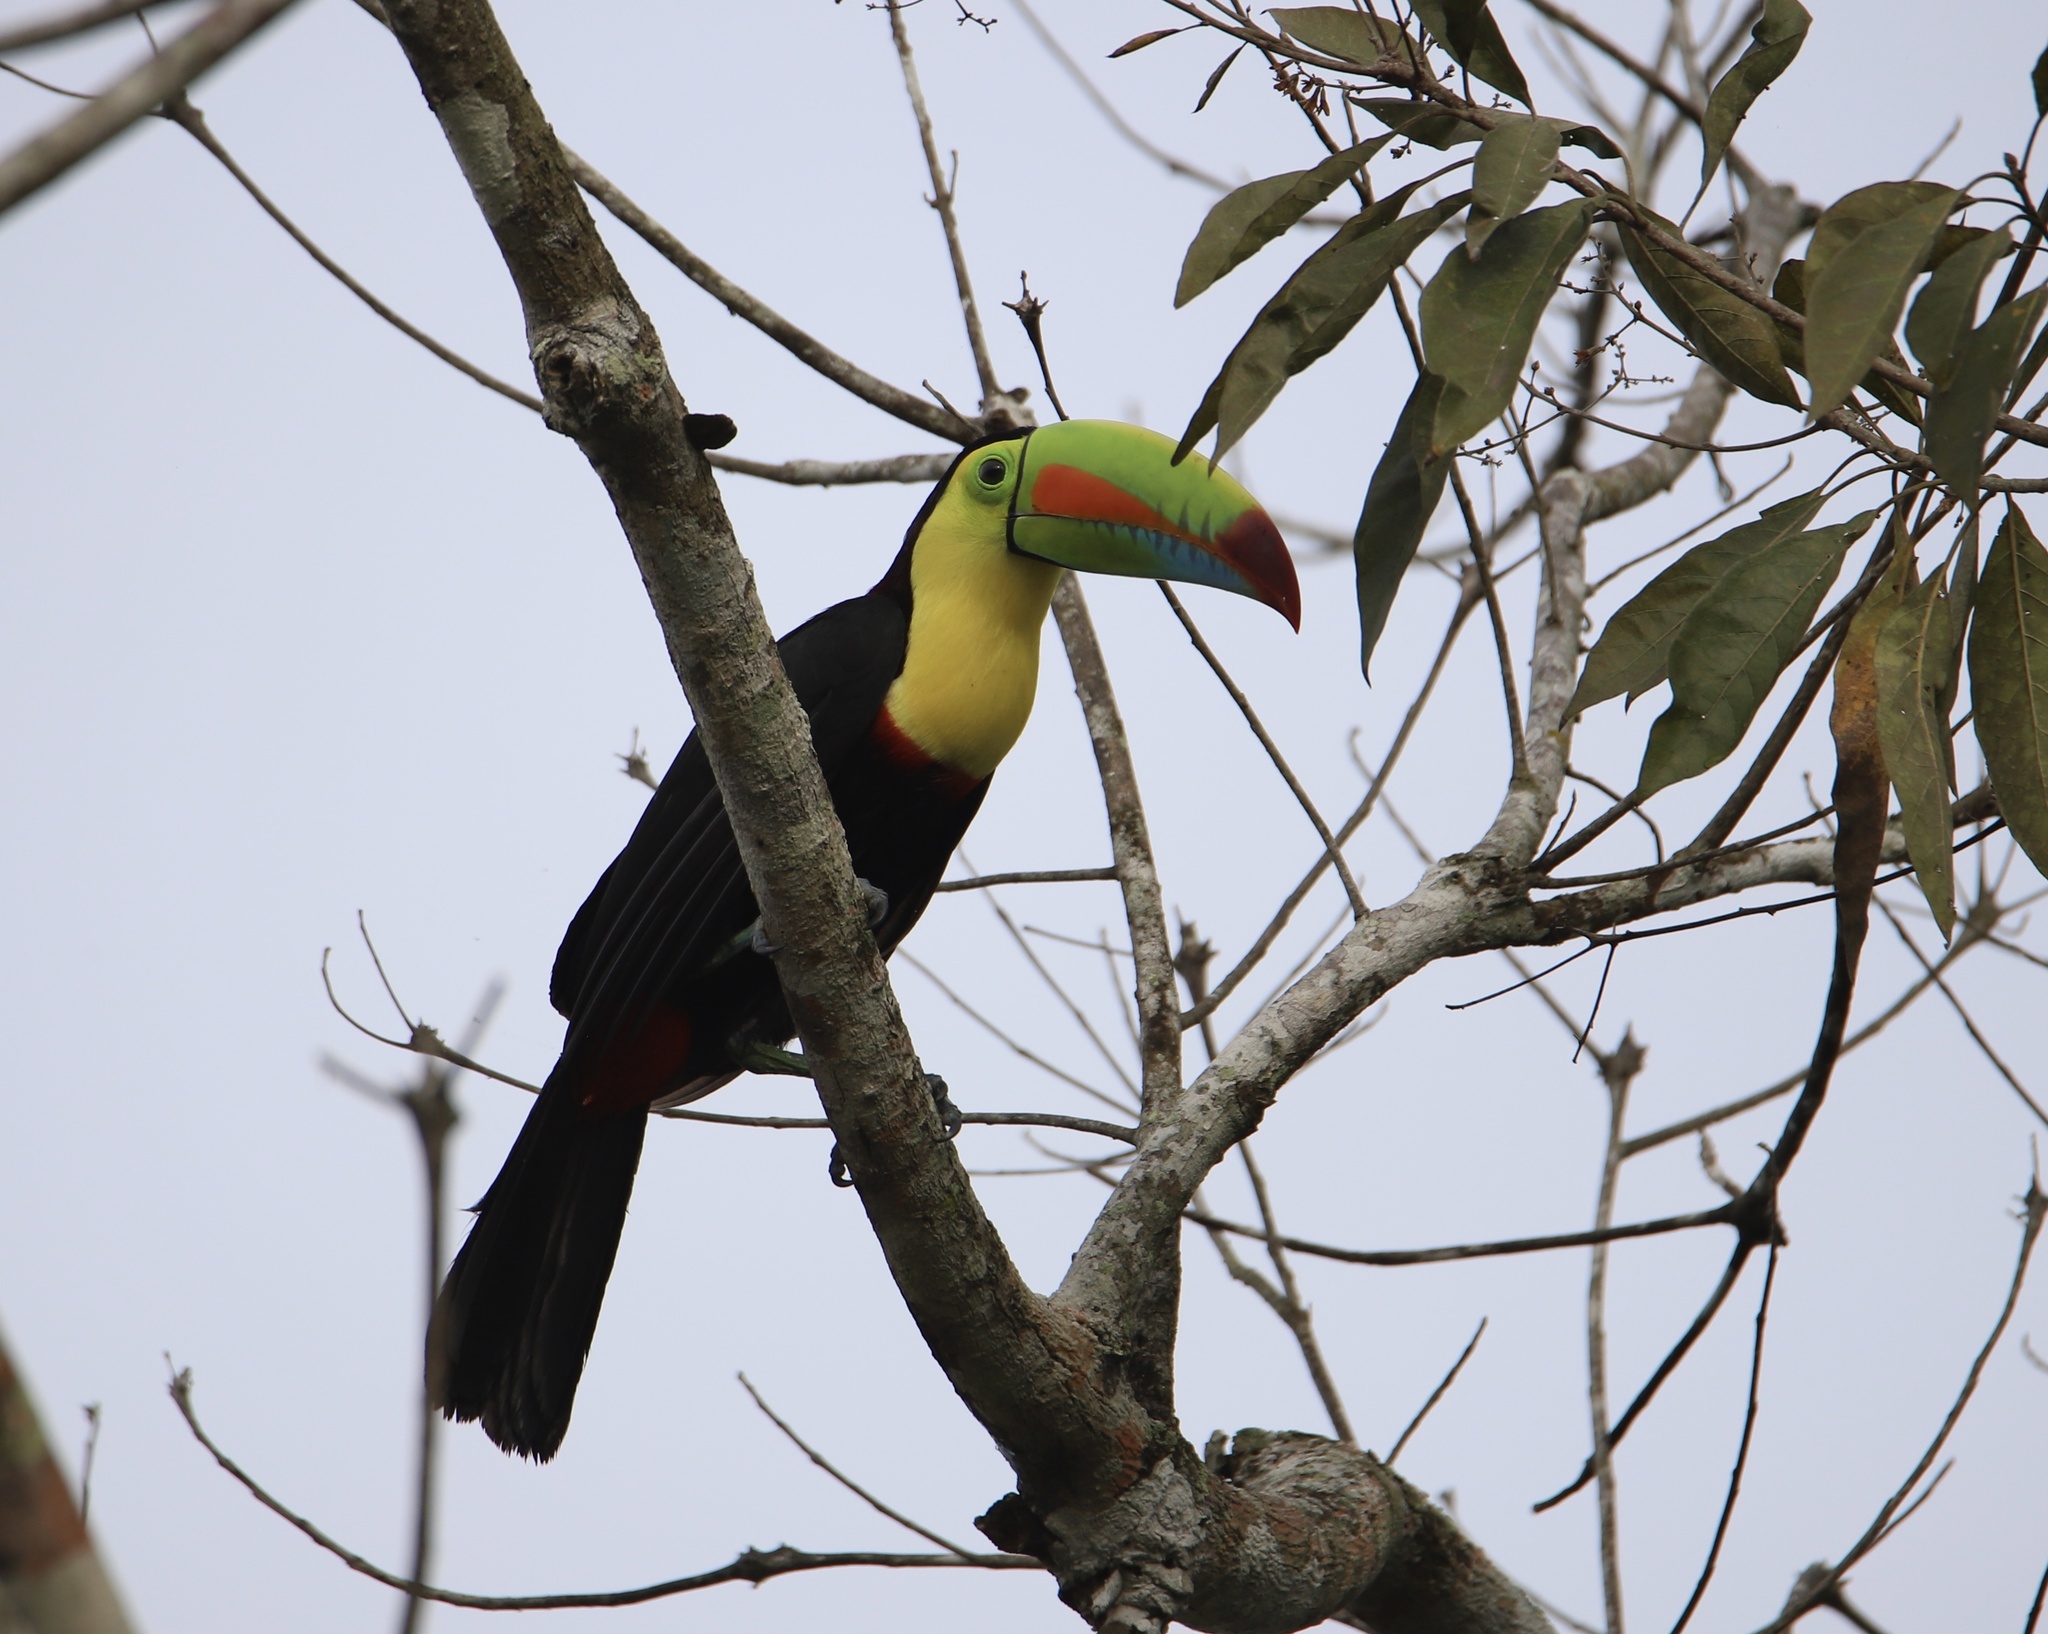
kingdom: Animalia
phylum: Chordata
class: Aves
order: Piciformes
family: Ramphastidae
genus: Ramphastos
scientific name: Ramphastos sulfuratus
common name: Keel-billed toucan
